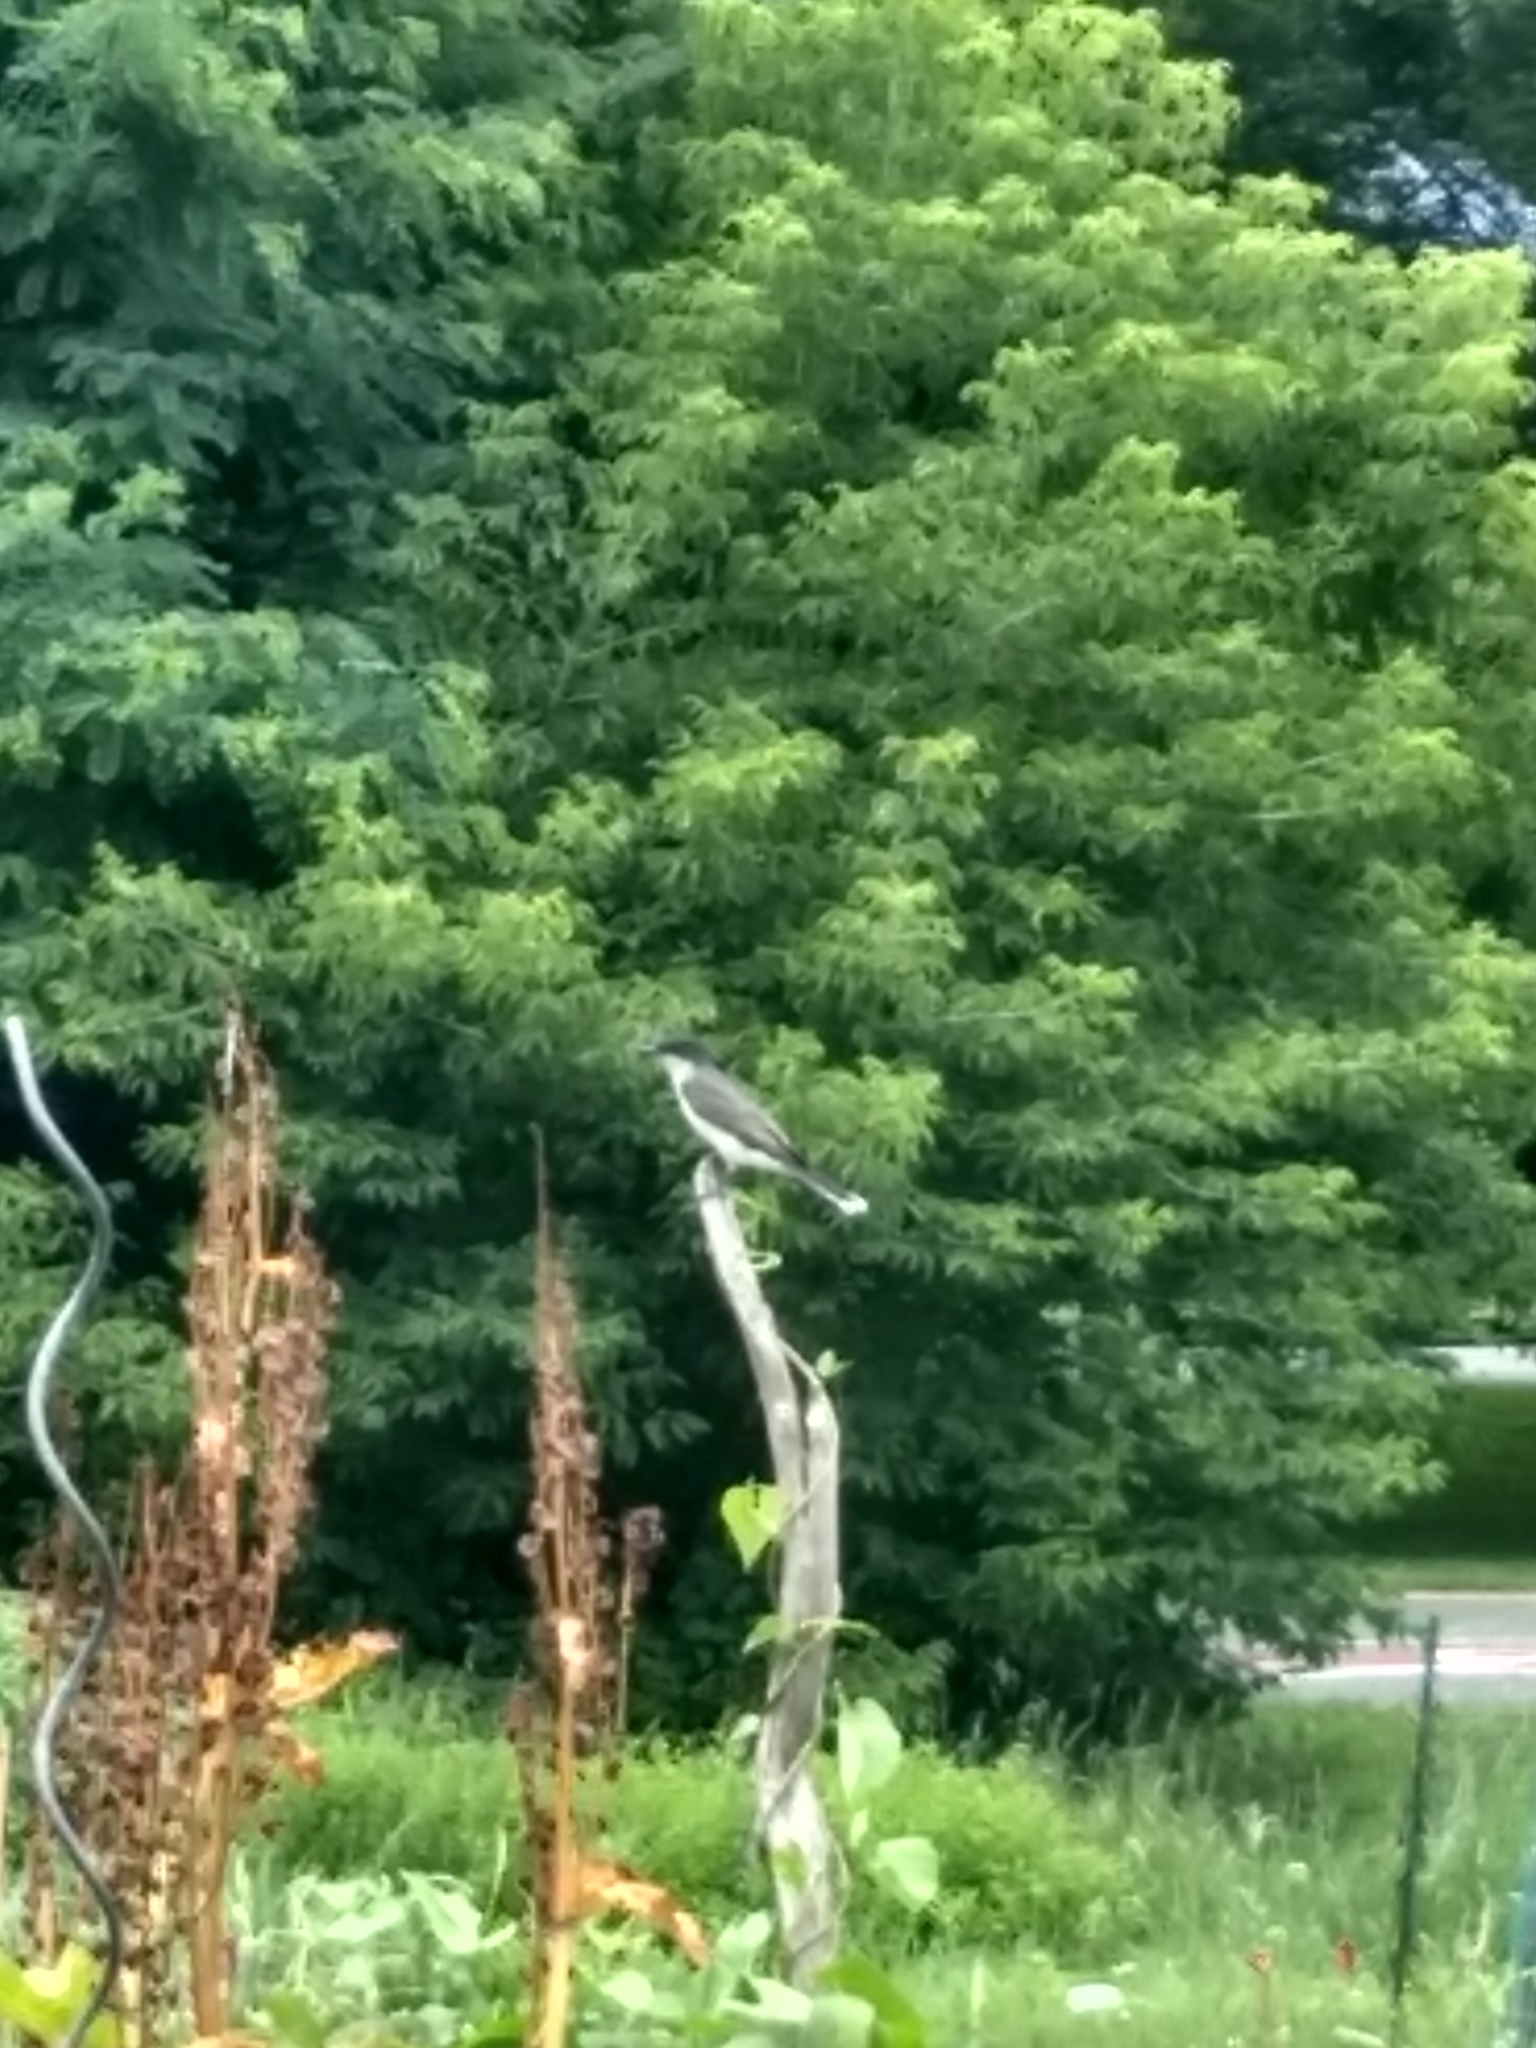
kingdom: Animalia
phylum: Chordata
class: Aves
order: Passeriformes
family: Tyrannidae
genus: Tyrannus
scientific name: Tyrannus tyrannus
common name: Eastern kingbird
